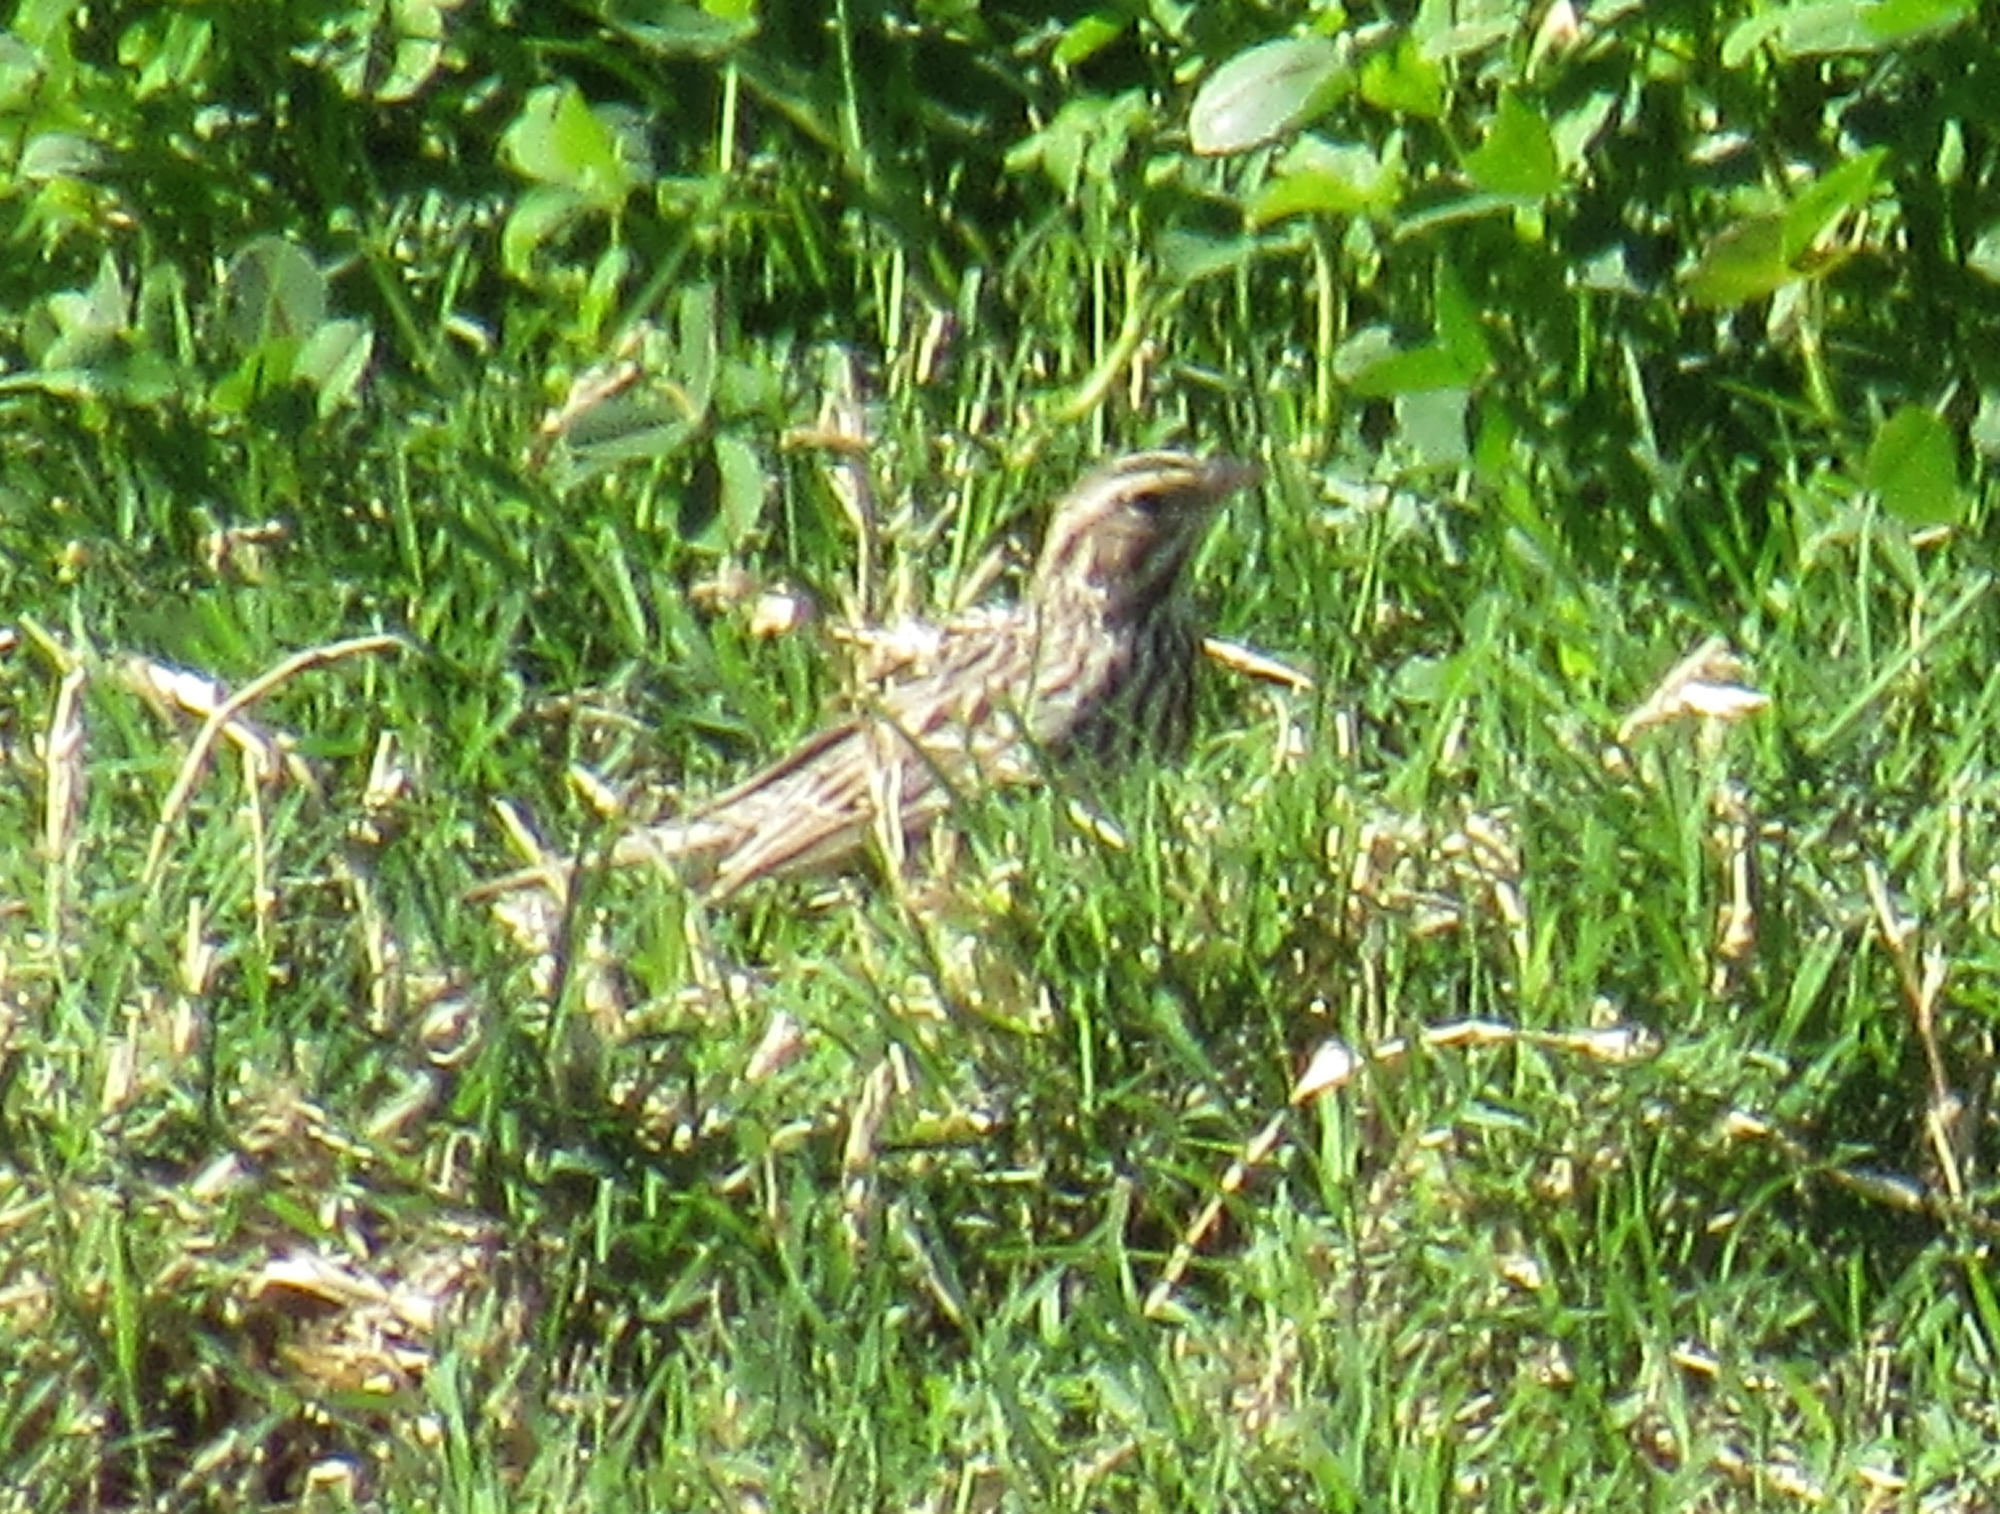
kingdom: Animalia
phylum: Chordata
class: Aves
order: Passeriformes
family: Passerellidae
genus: Passerculus
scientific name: Passerculus sandwichensis
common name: Savannah sparrow
